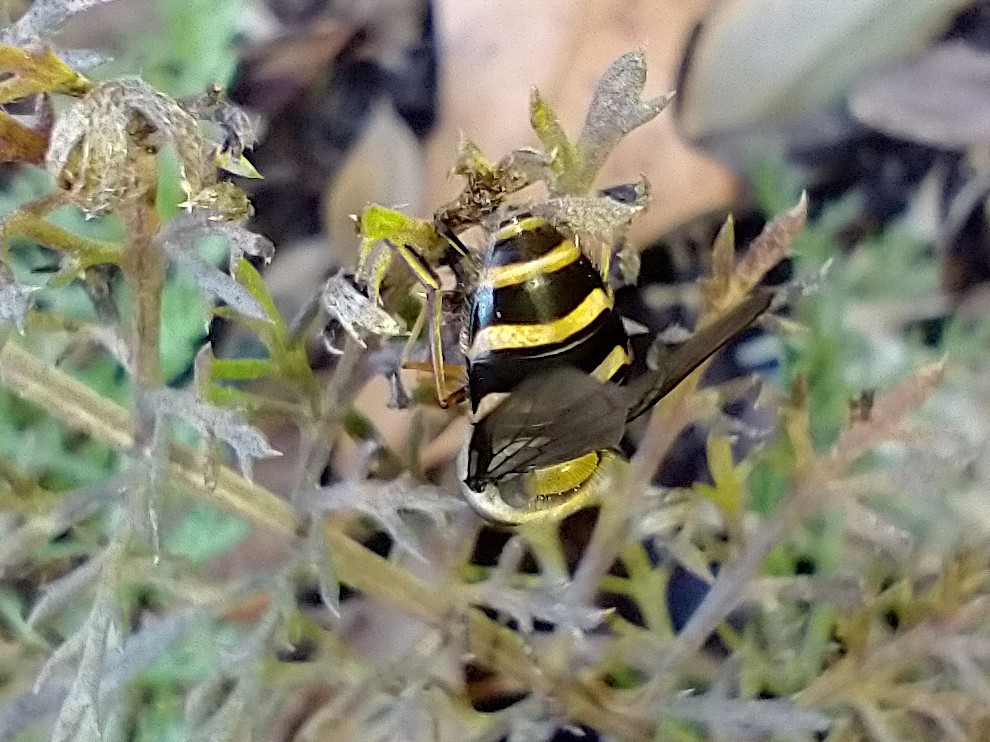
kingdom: Animalia
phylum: Arthropoda
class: Insecta
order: Diptera
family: Syrphidae
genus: Syrphus
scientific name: Syrphus
